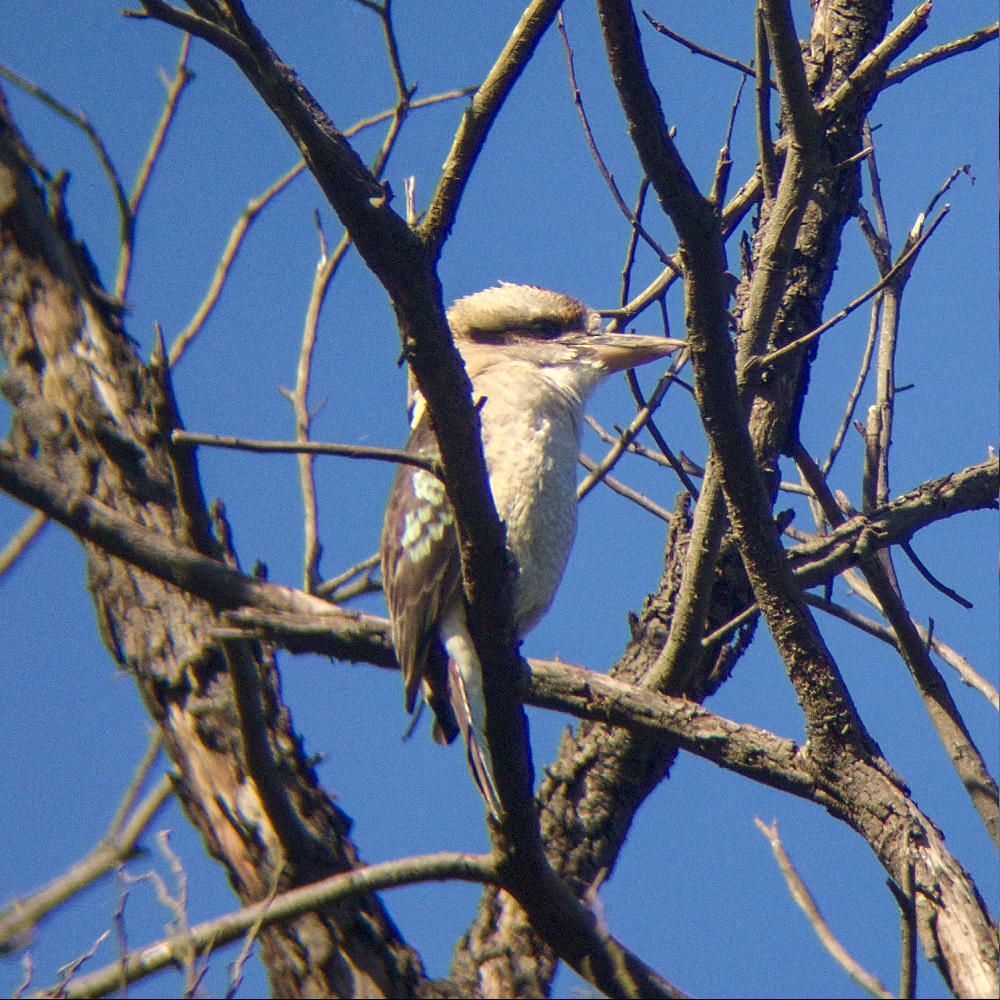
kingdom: Animalia
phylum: Chordata
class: Aves
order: Coraciiformes
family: Alcedinidae
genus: Dacelo
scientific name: Dacelo novaeguineae
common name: Laughing kookaburra
